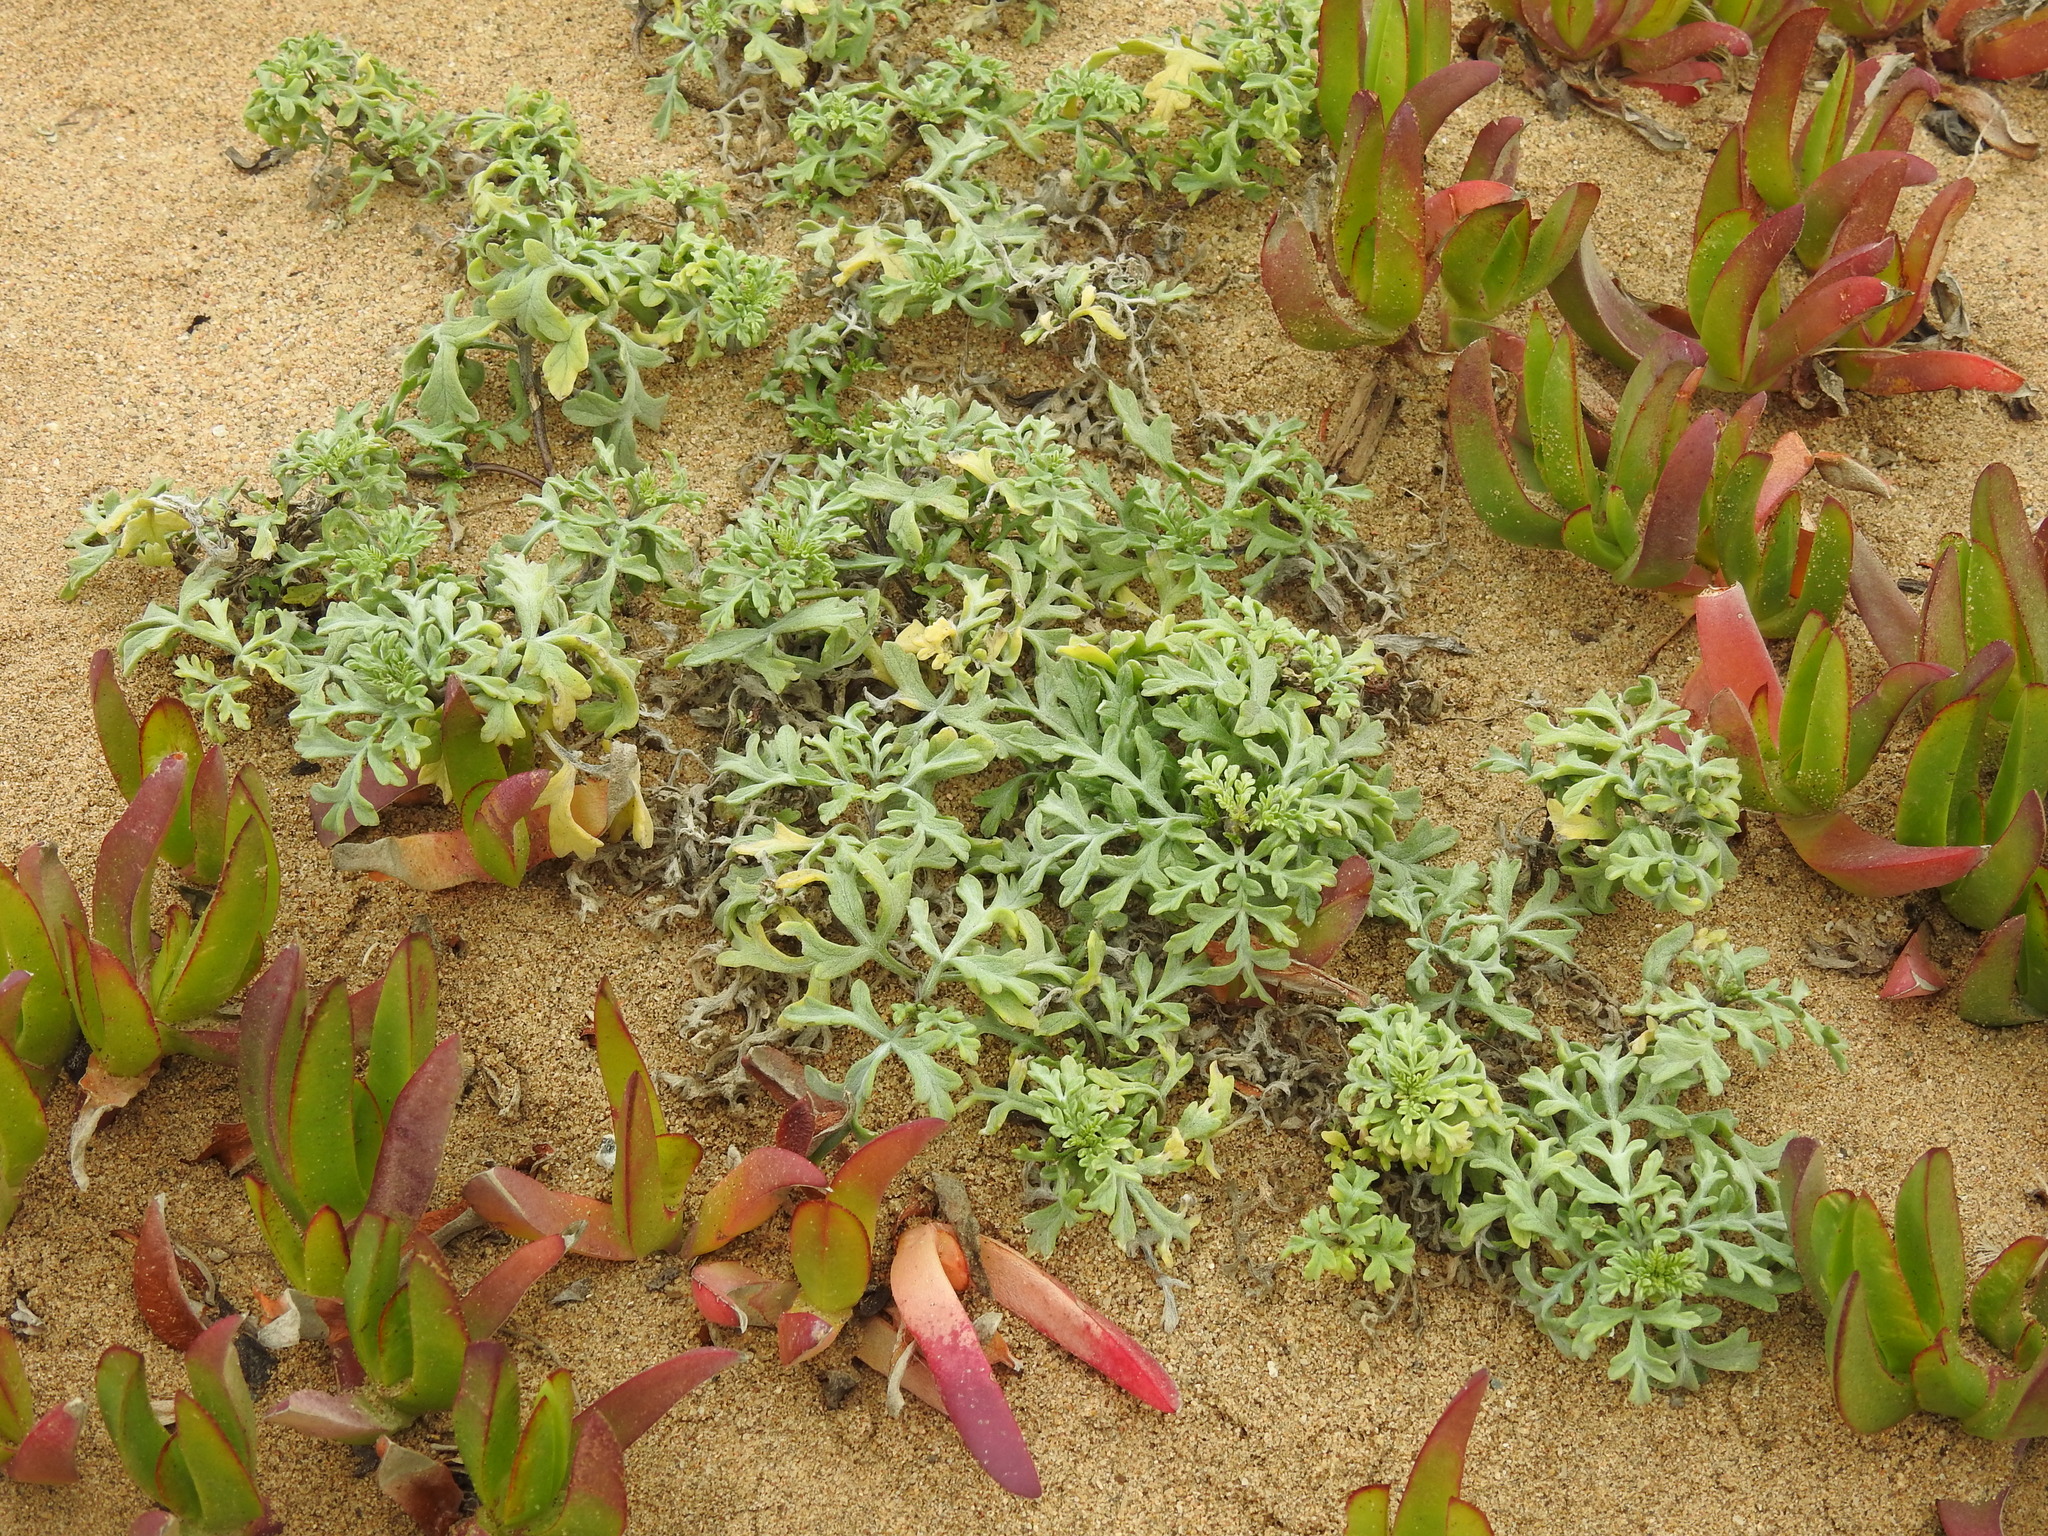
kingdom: Plantae
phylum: Tracheophyta
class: Magnoliopsida
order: Asterales
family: Asteraceae
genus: Ambrosia
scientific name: Ambrosia chamissonis
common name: Beachbur
